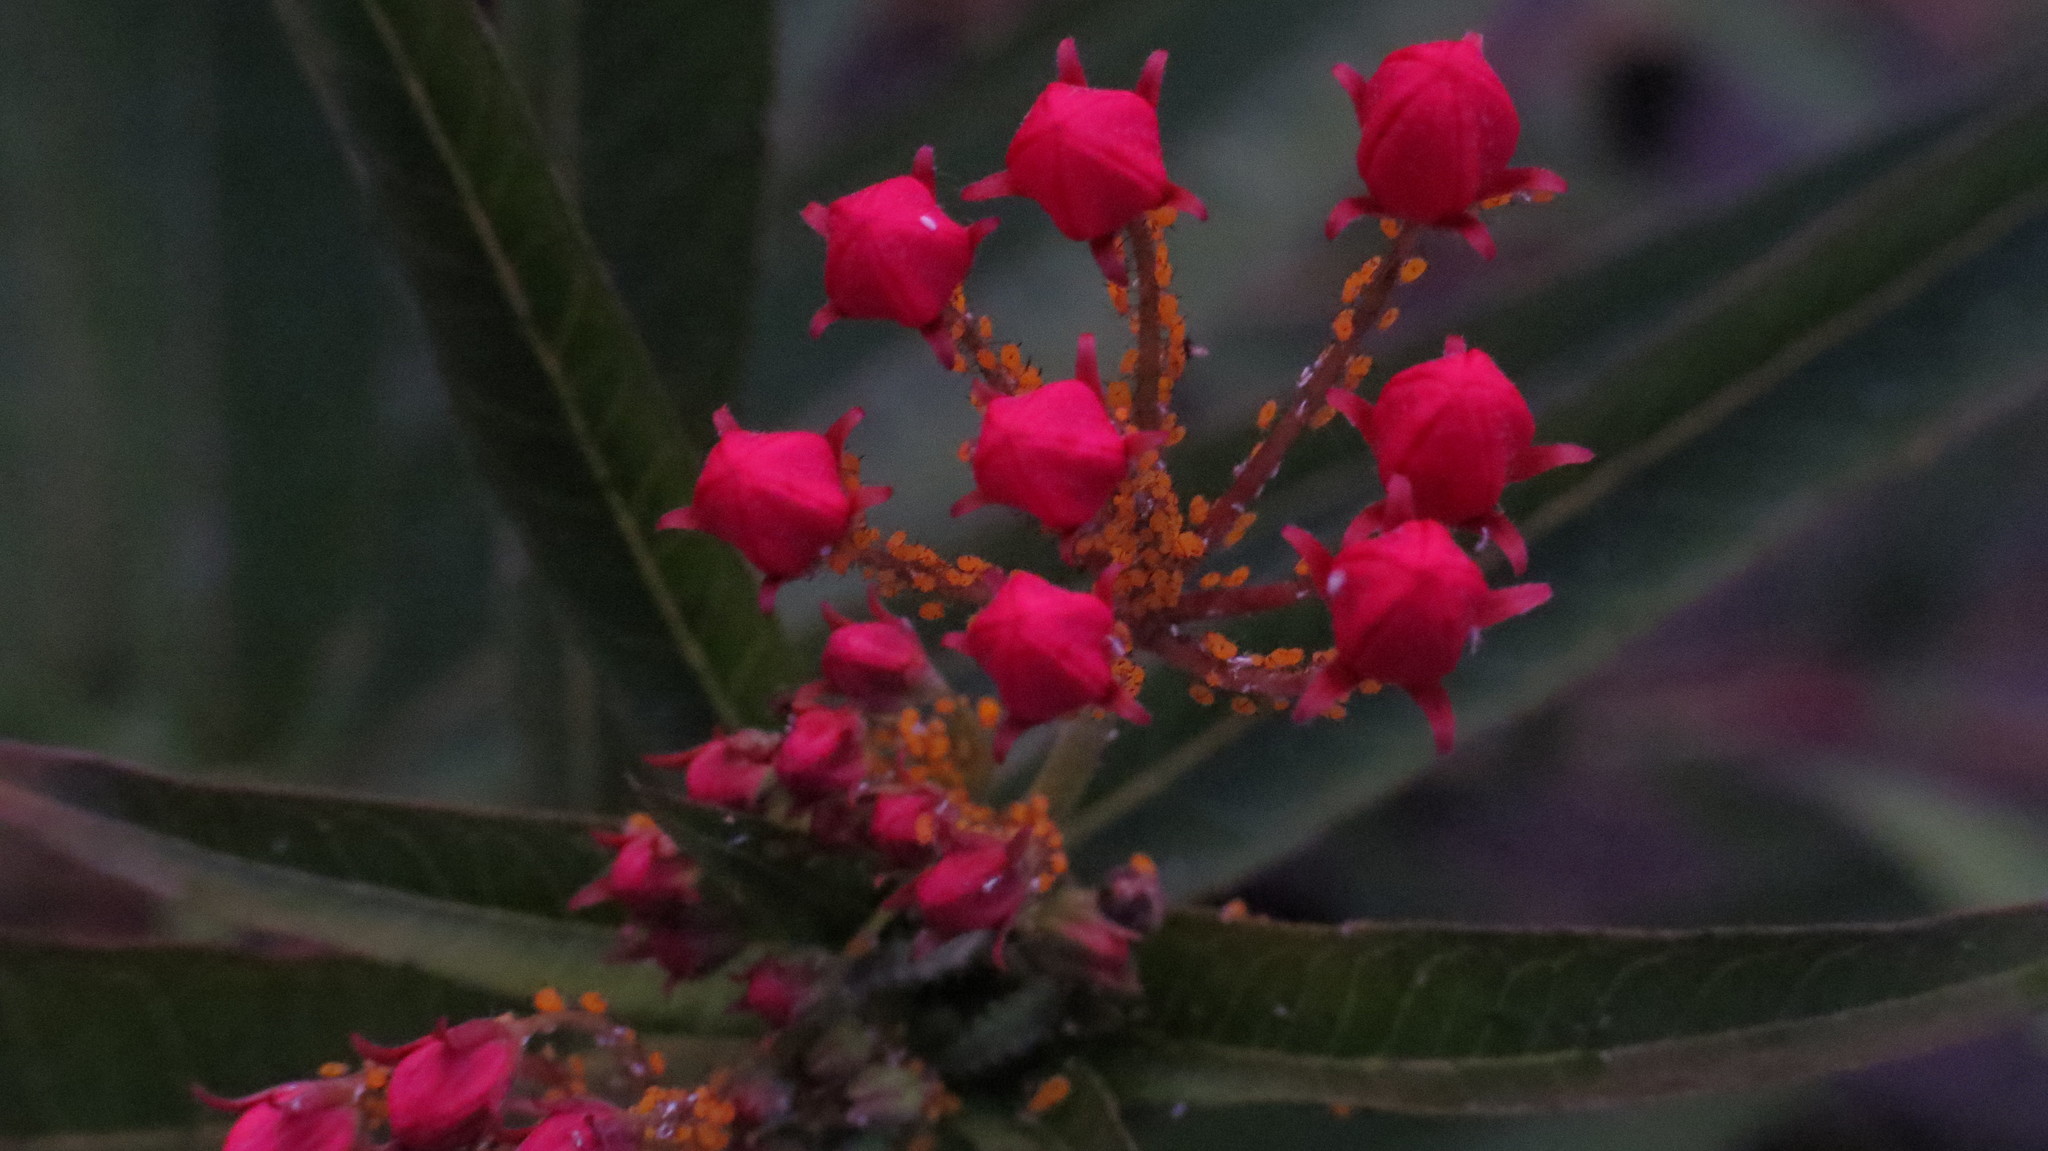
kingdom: Plantae
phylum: Tracheophyta
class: Magnoliopsida
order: Gentianales
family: Apocynaceae
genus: Asclepias
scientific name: Asclepias curassavica
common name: Bloodflower
